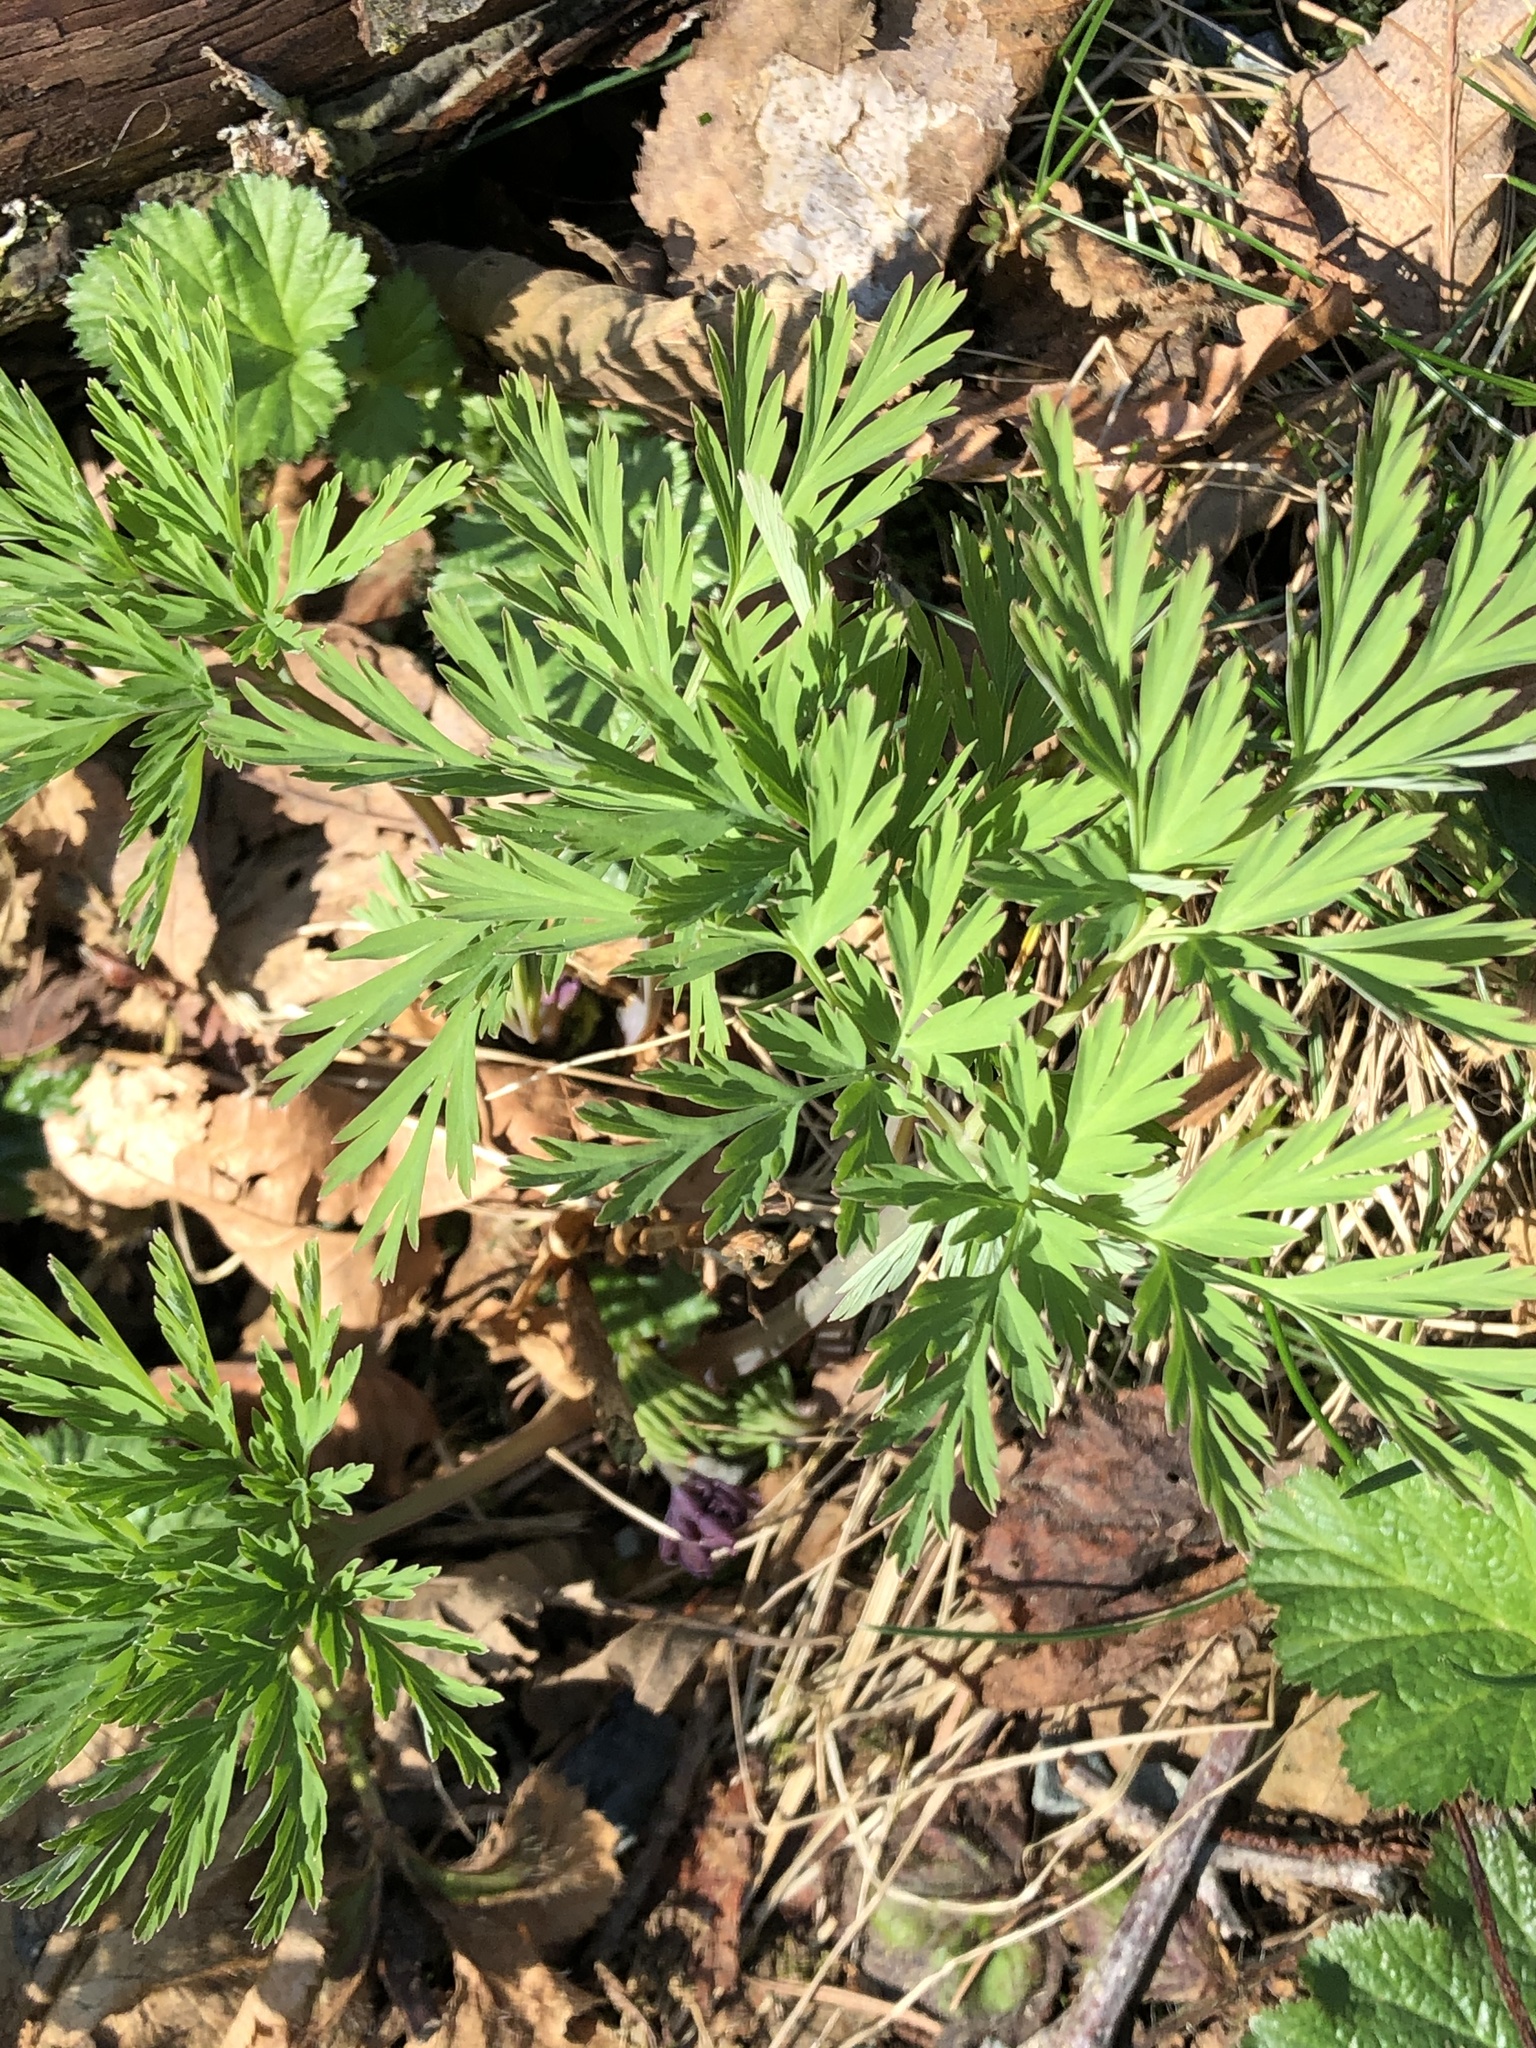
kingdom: Plantae
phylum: Tracheophyta
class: Magnoliopsida
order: Ranunculales
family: Papaveraceae
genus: Dicentra
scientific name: Dicentra formosa
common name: Bleeding-heart
